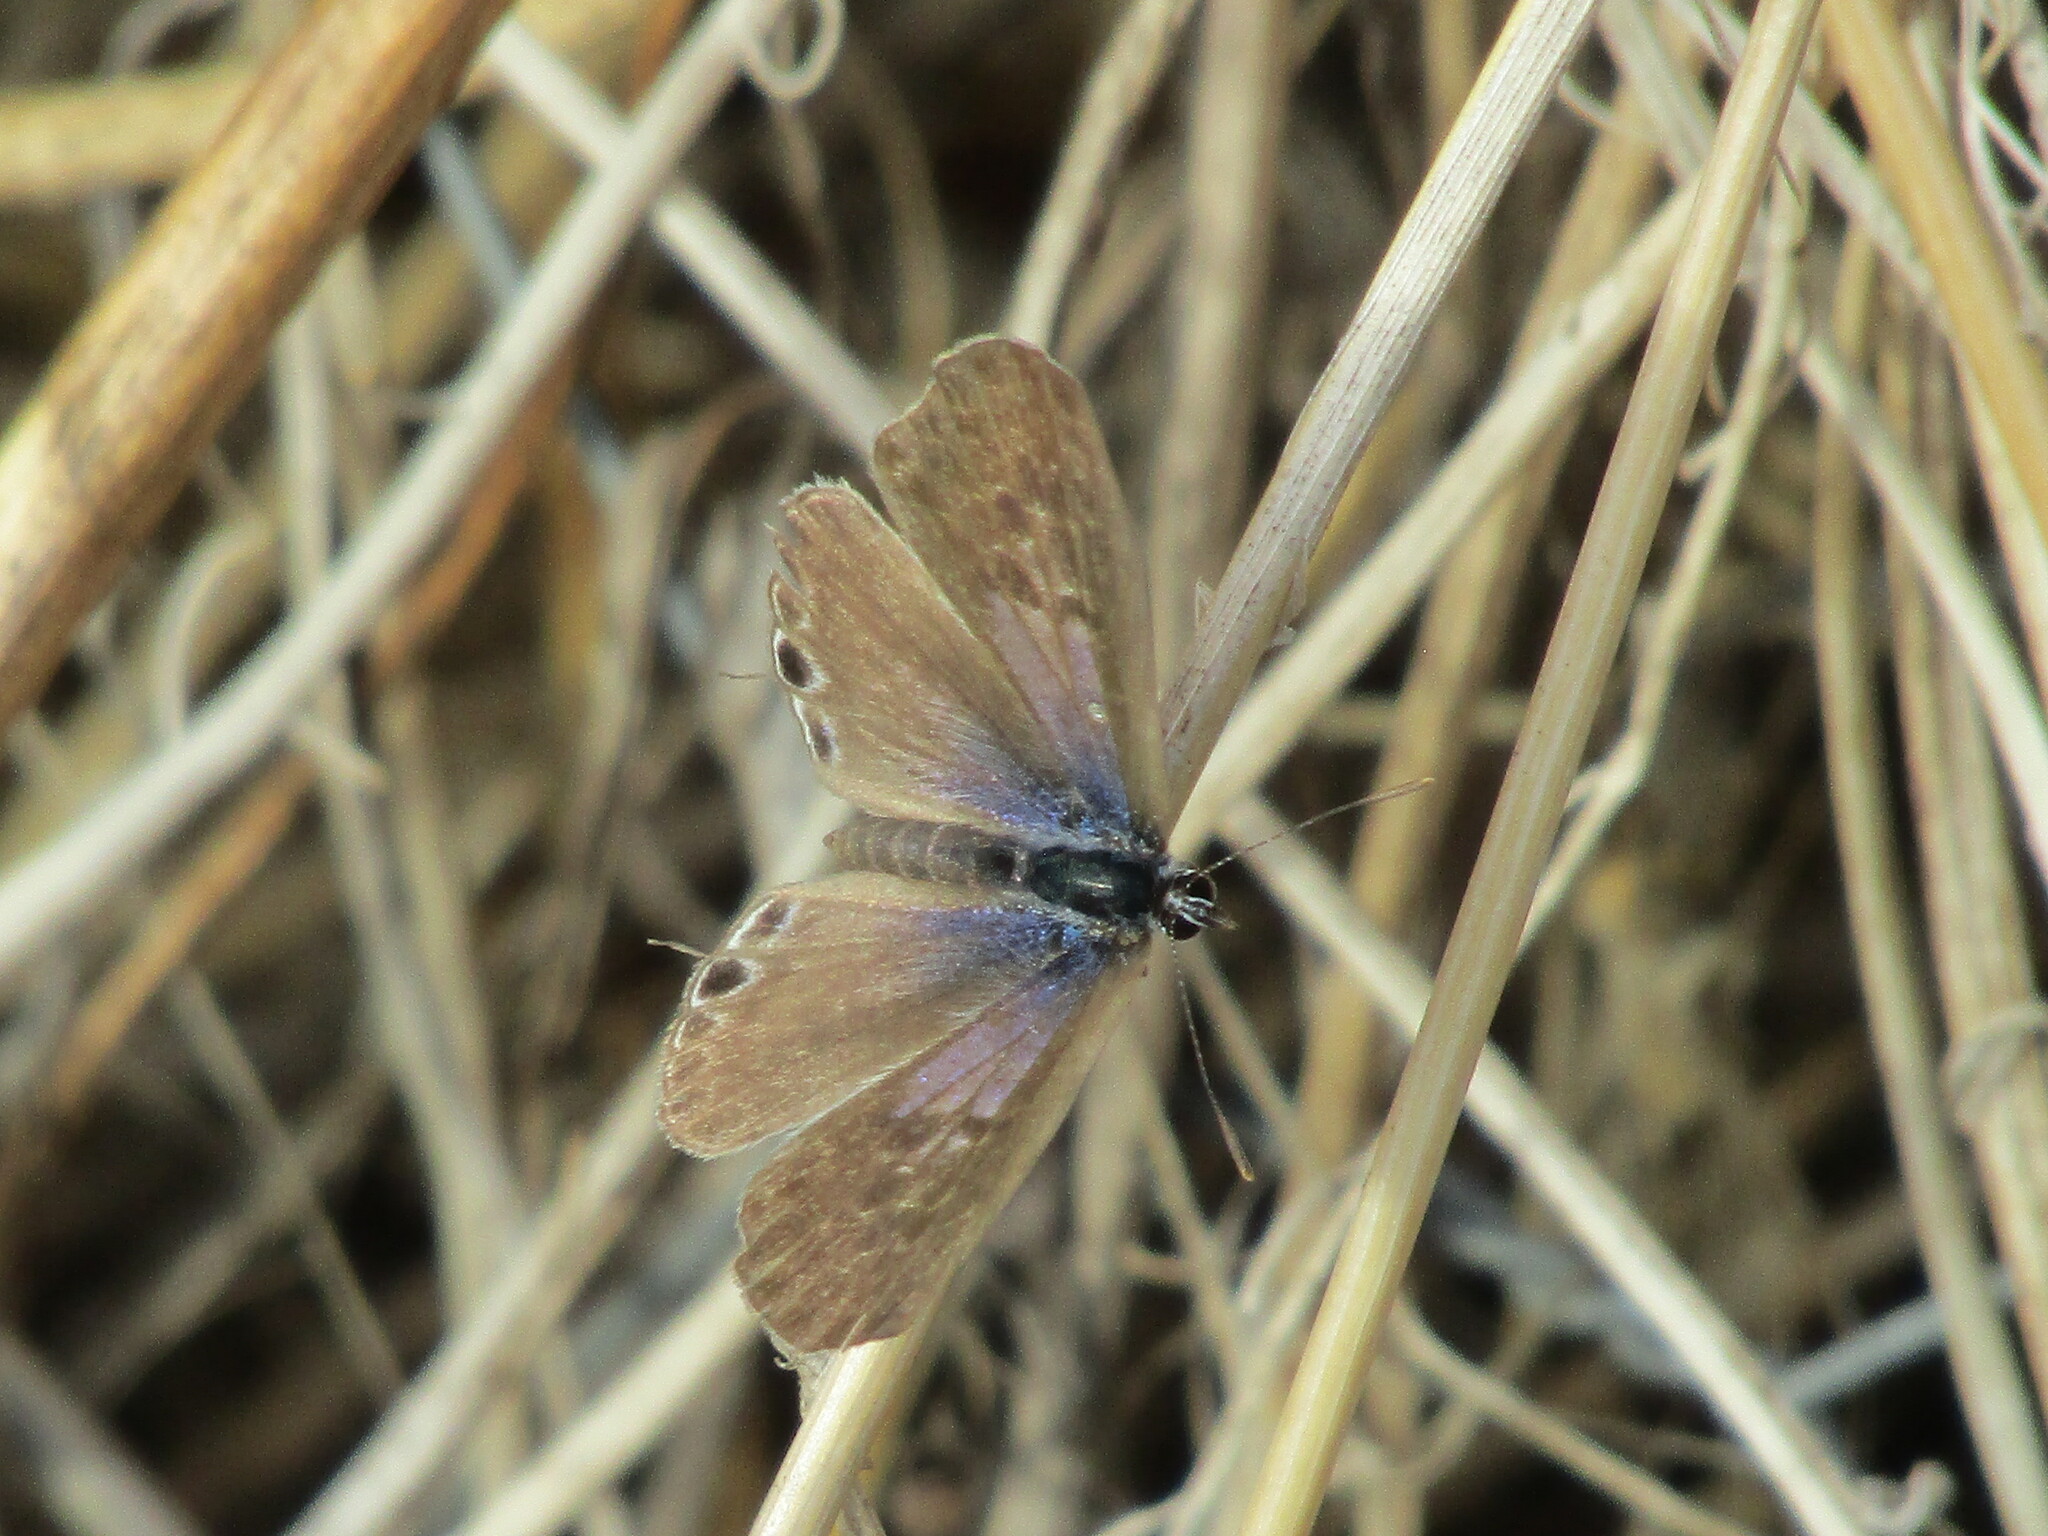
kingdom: Animalia
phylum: Arthropoda
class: Insecta
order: Lepidoptera
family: Lycaenidae
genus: Leptotes
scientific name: Leptotes pirithous
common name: Lang's short-tailed blue
